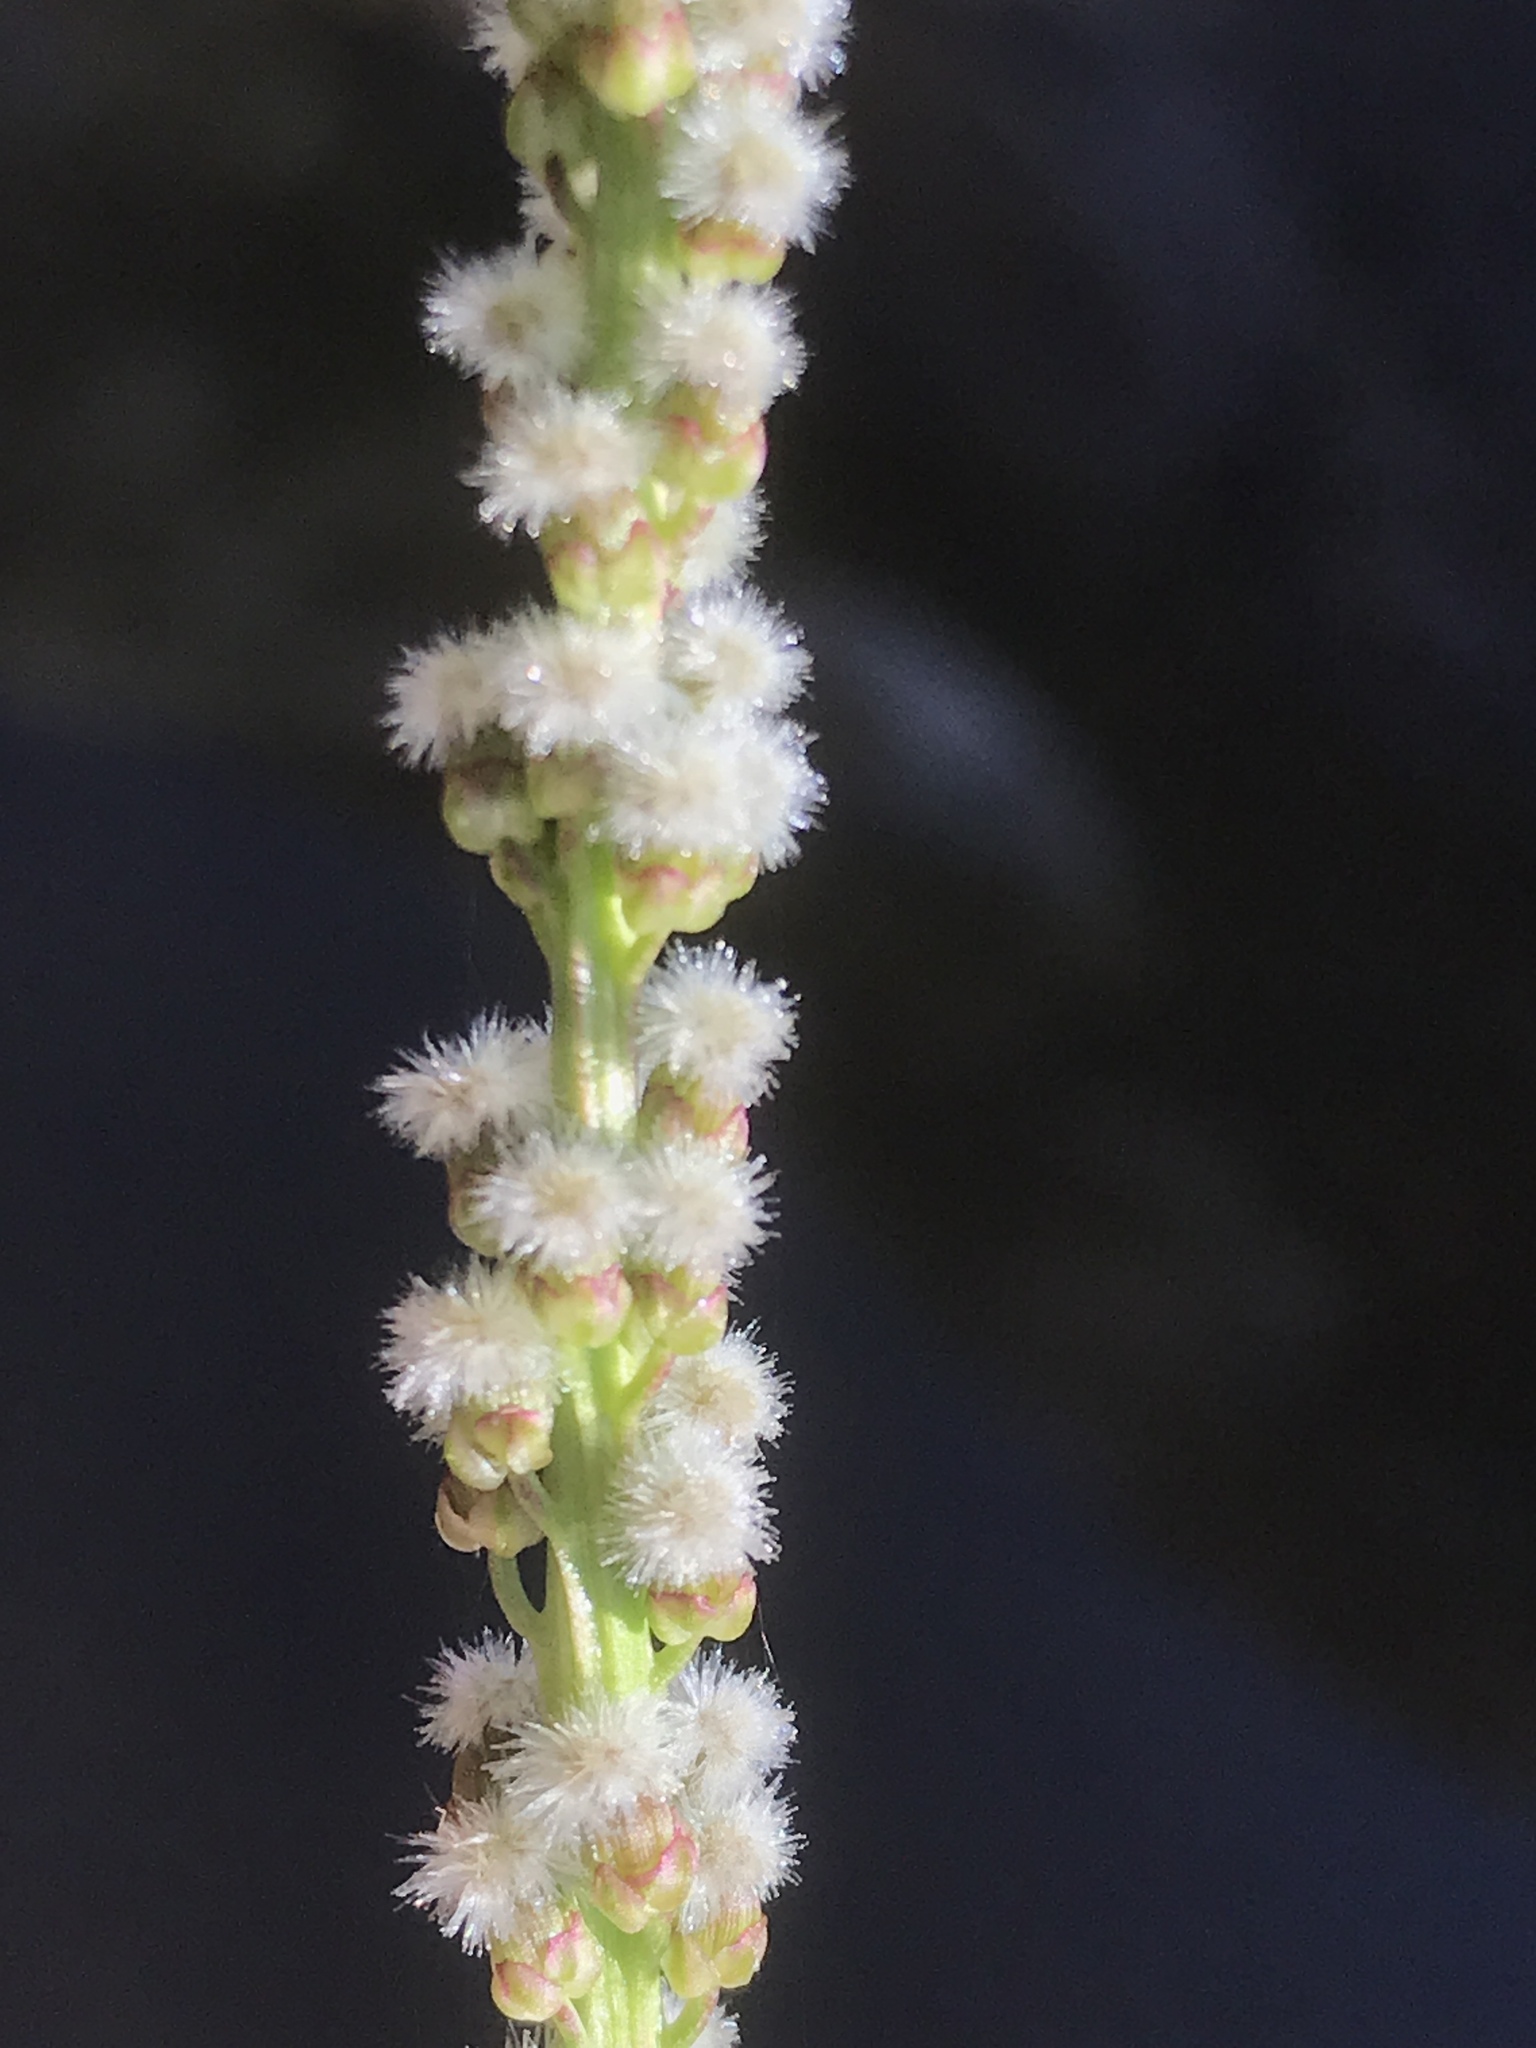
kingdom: Plantae
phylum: Tracheophyta
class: Liliopsida
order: Alismatales
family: Juncaginaceae
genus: Triglochin
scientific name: Triglochin maritima
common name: Sea arrowgrass
